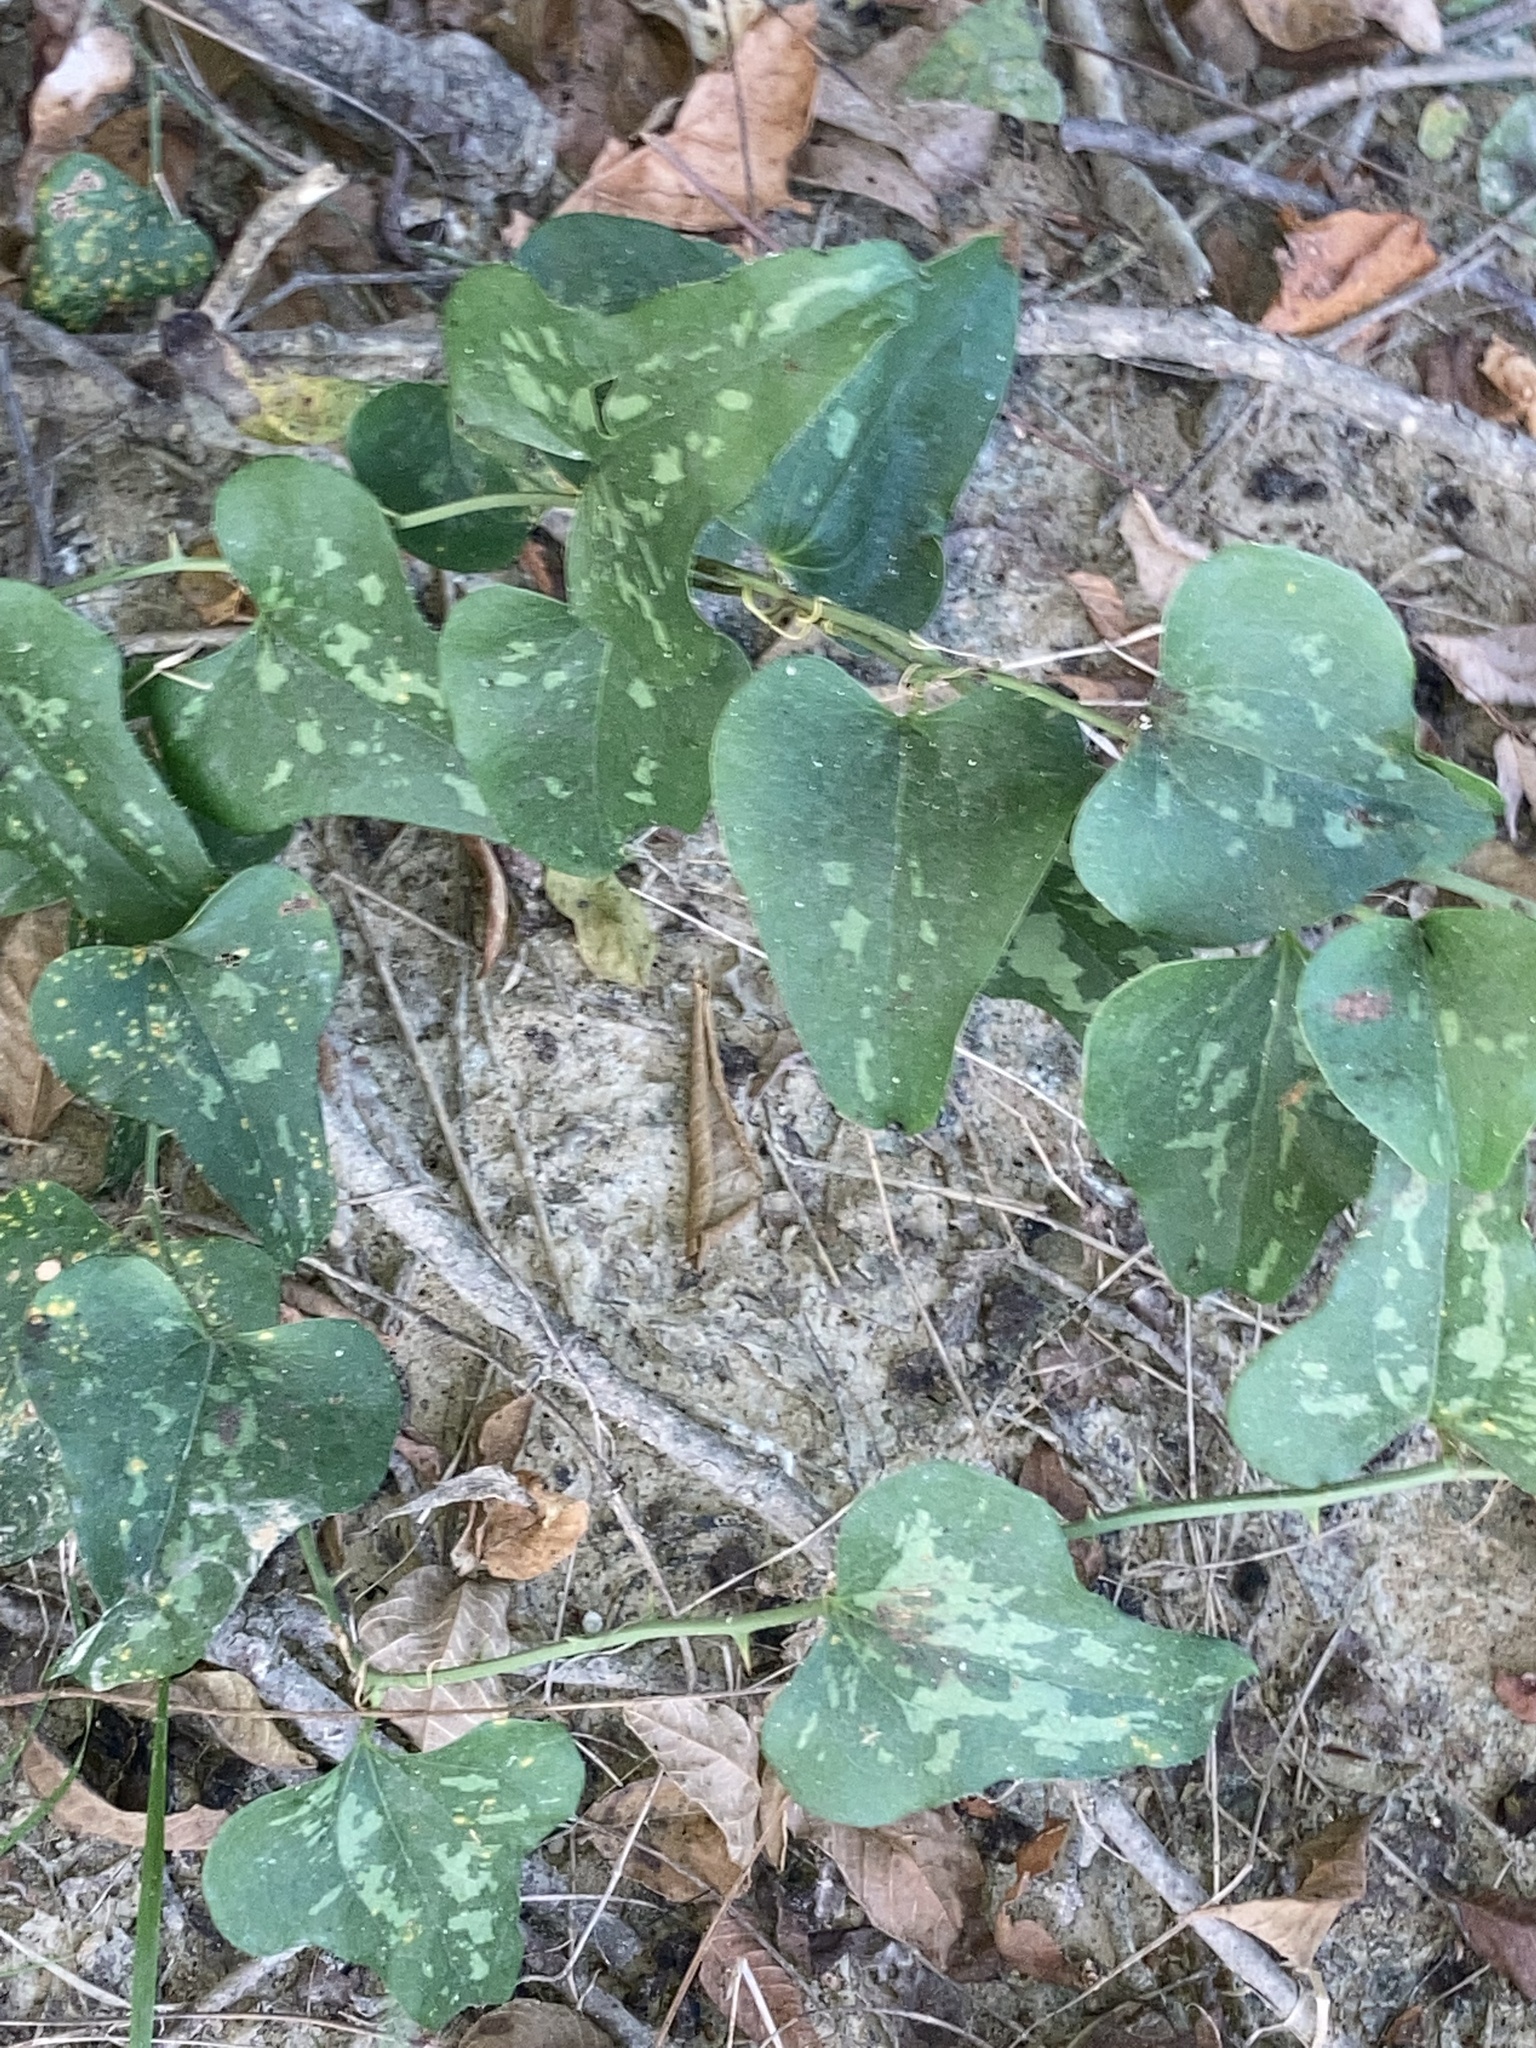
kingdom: Plantae
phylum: Tracheophyta
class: Liliopsida
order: Liliales
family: Smilacaceae
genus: Smilax
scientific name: Smilax bona-nox
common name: Catbrier
